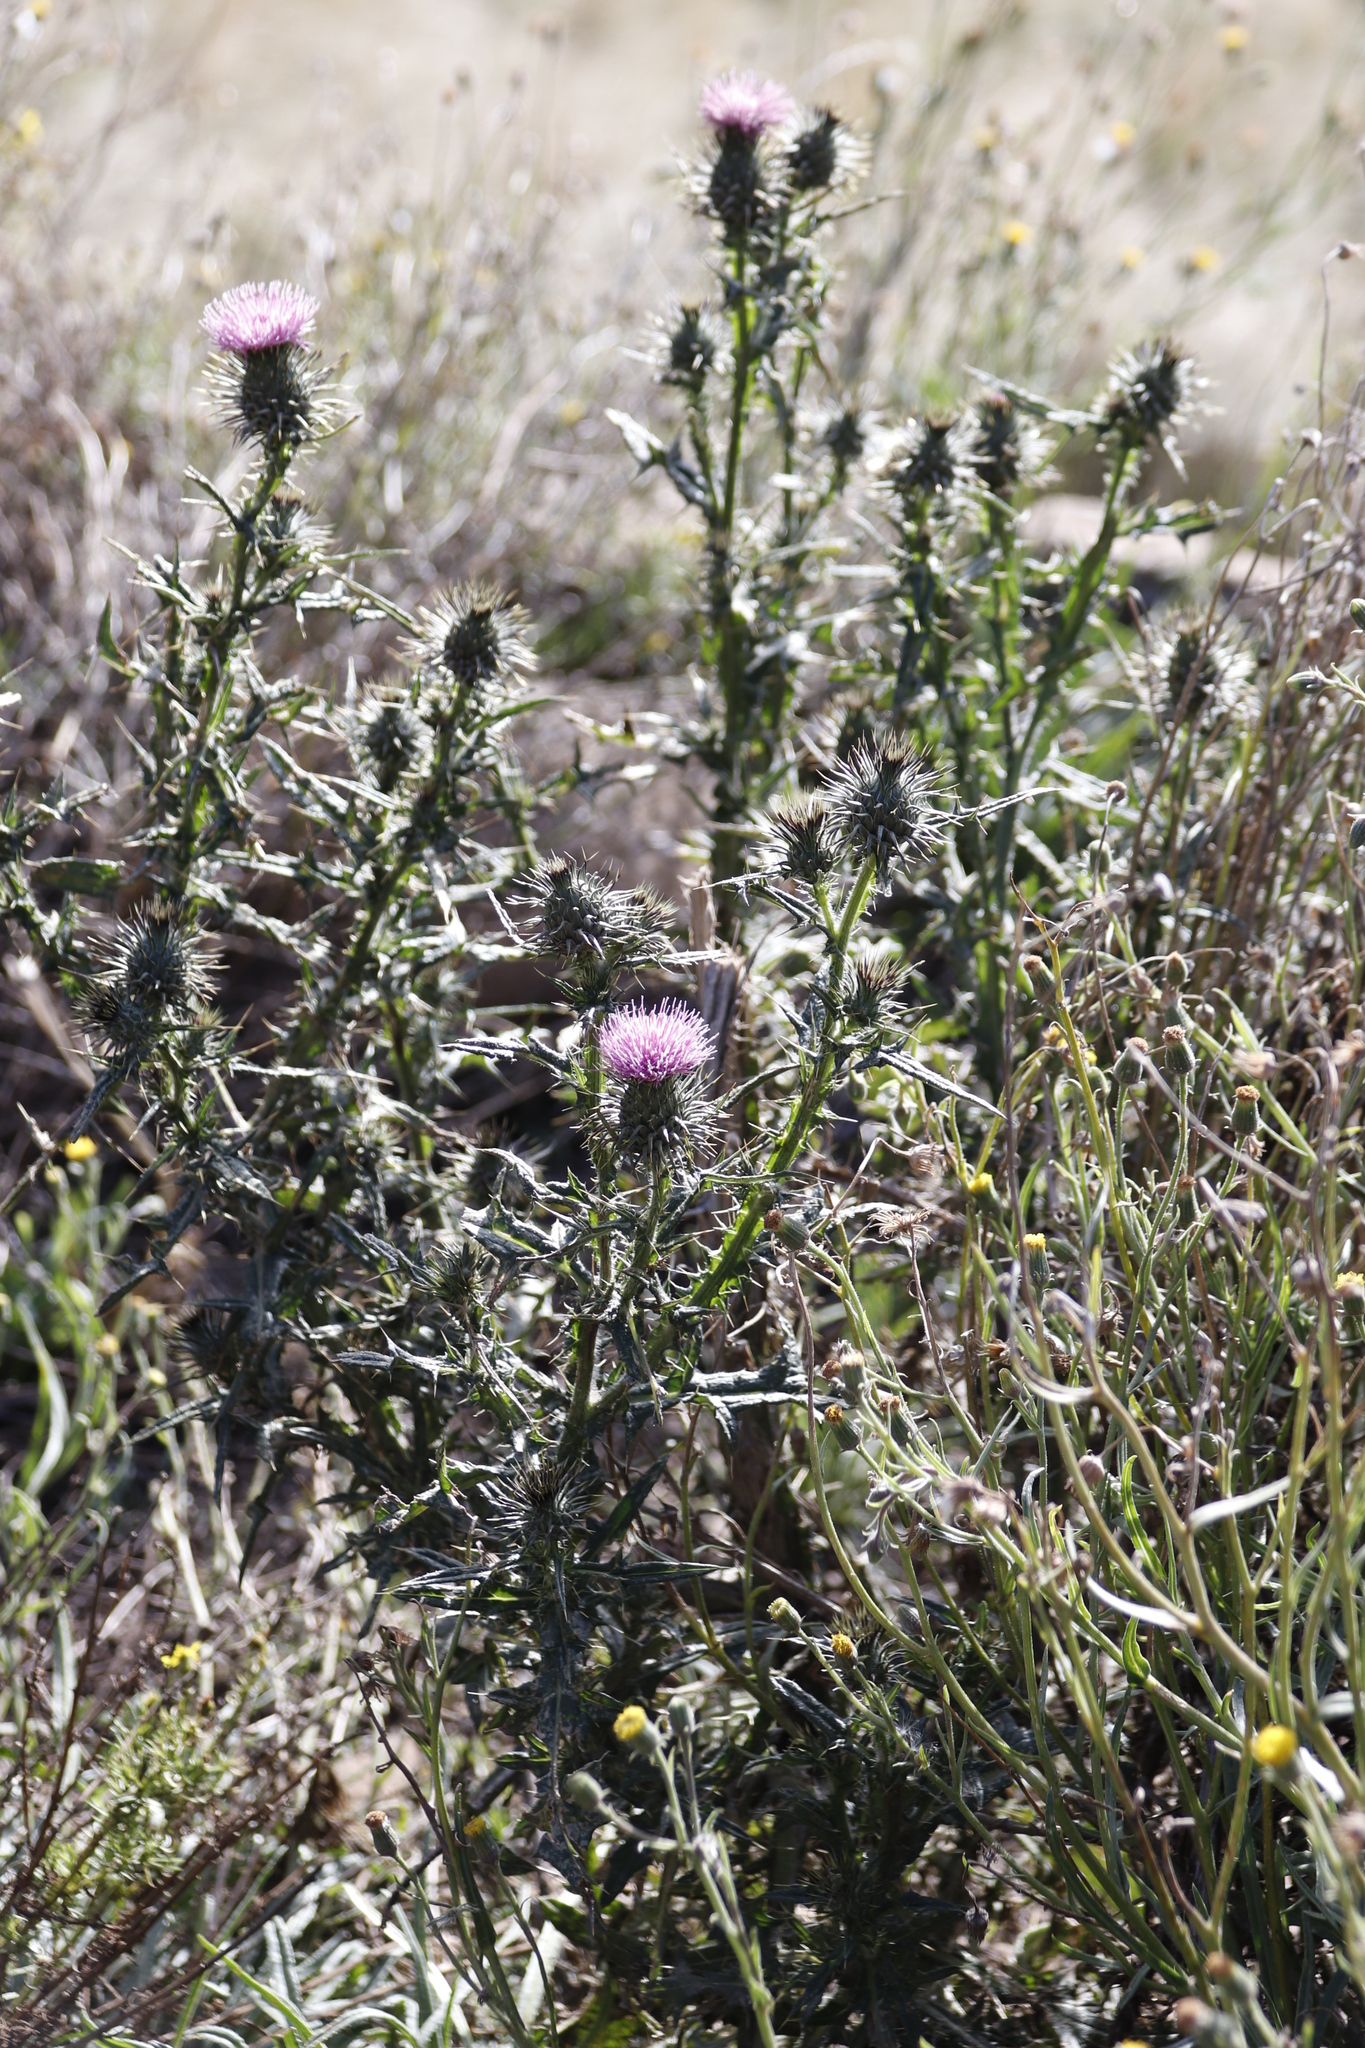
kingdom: Plantae
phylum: Tracheophyta
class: Magnoliopsida
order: Asterales
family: Asteraceae
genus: Cirsium
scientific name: Cirsium vulgare
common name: Bull thistle
